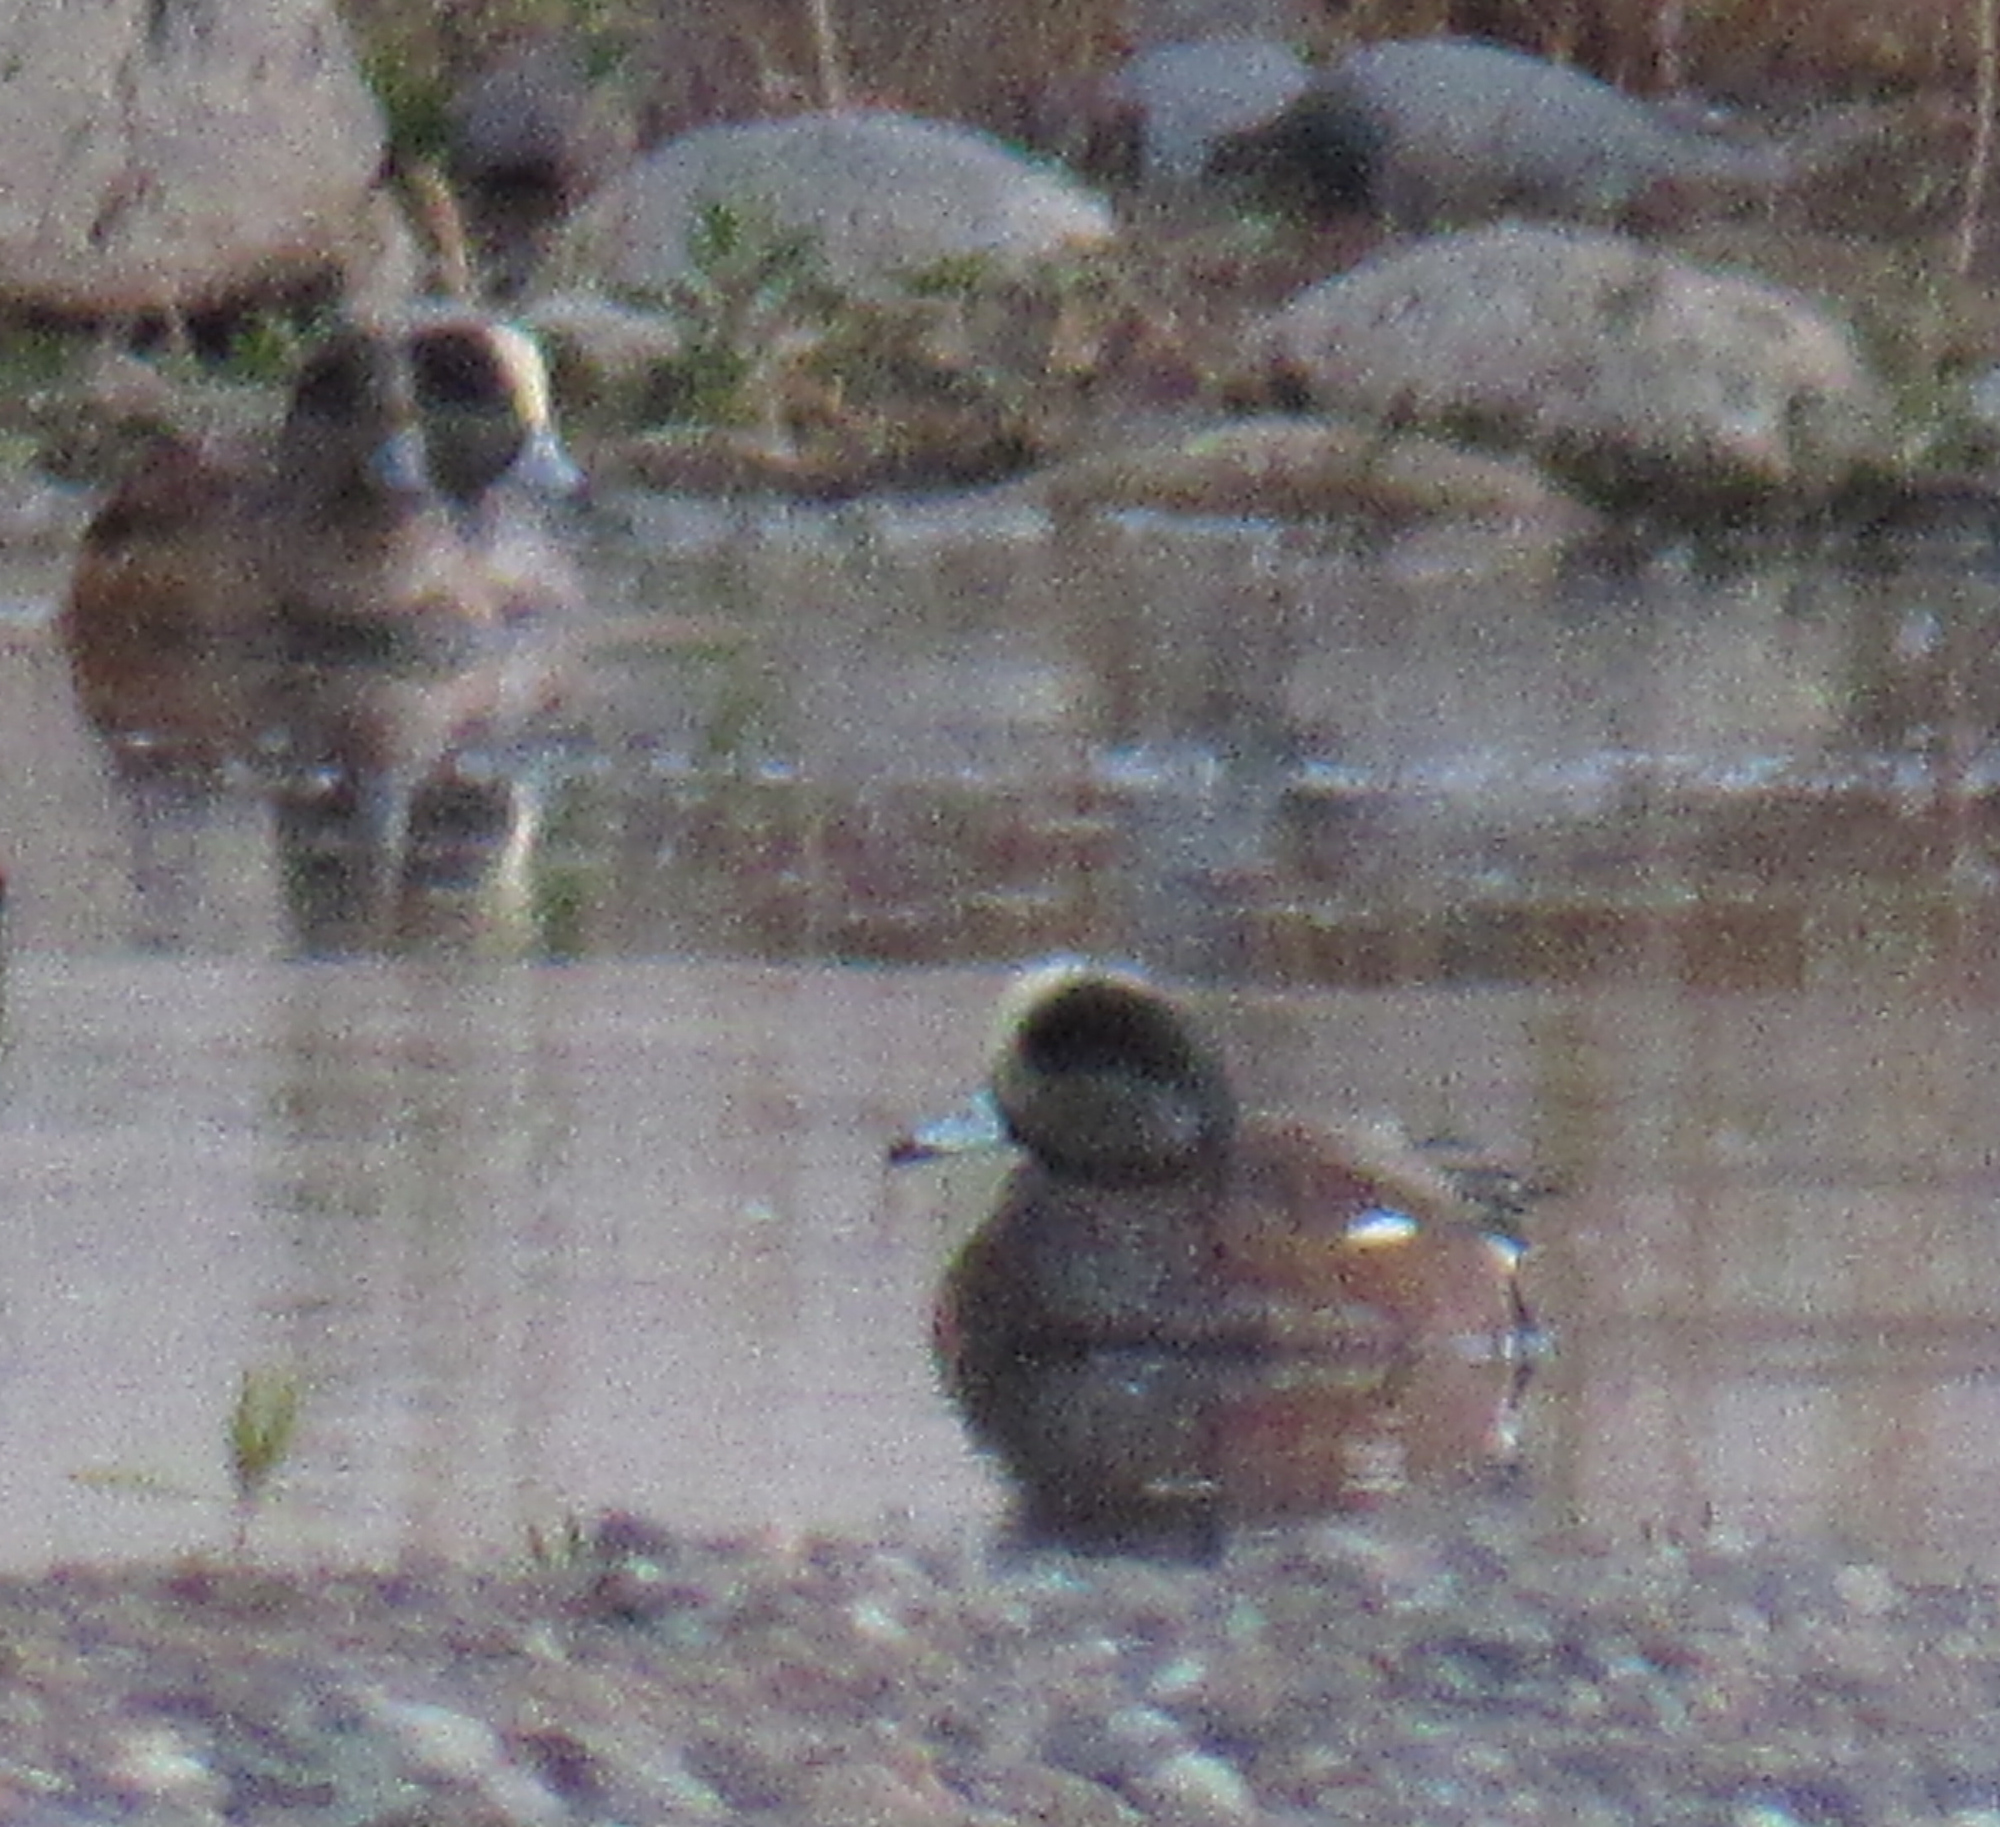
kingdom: Animalia
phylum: Chordata
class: Aves
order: Anseriformes
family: Anatidae
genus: Mareca
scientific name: Mareca americana
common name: American wigeon
